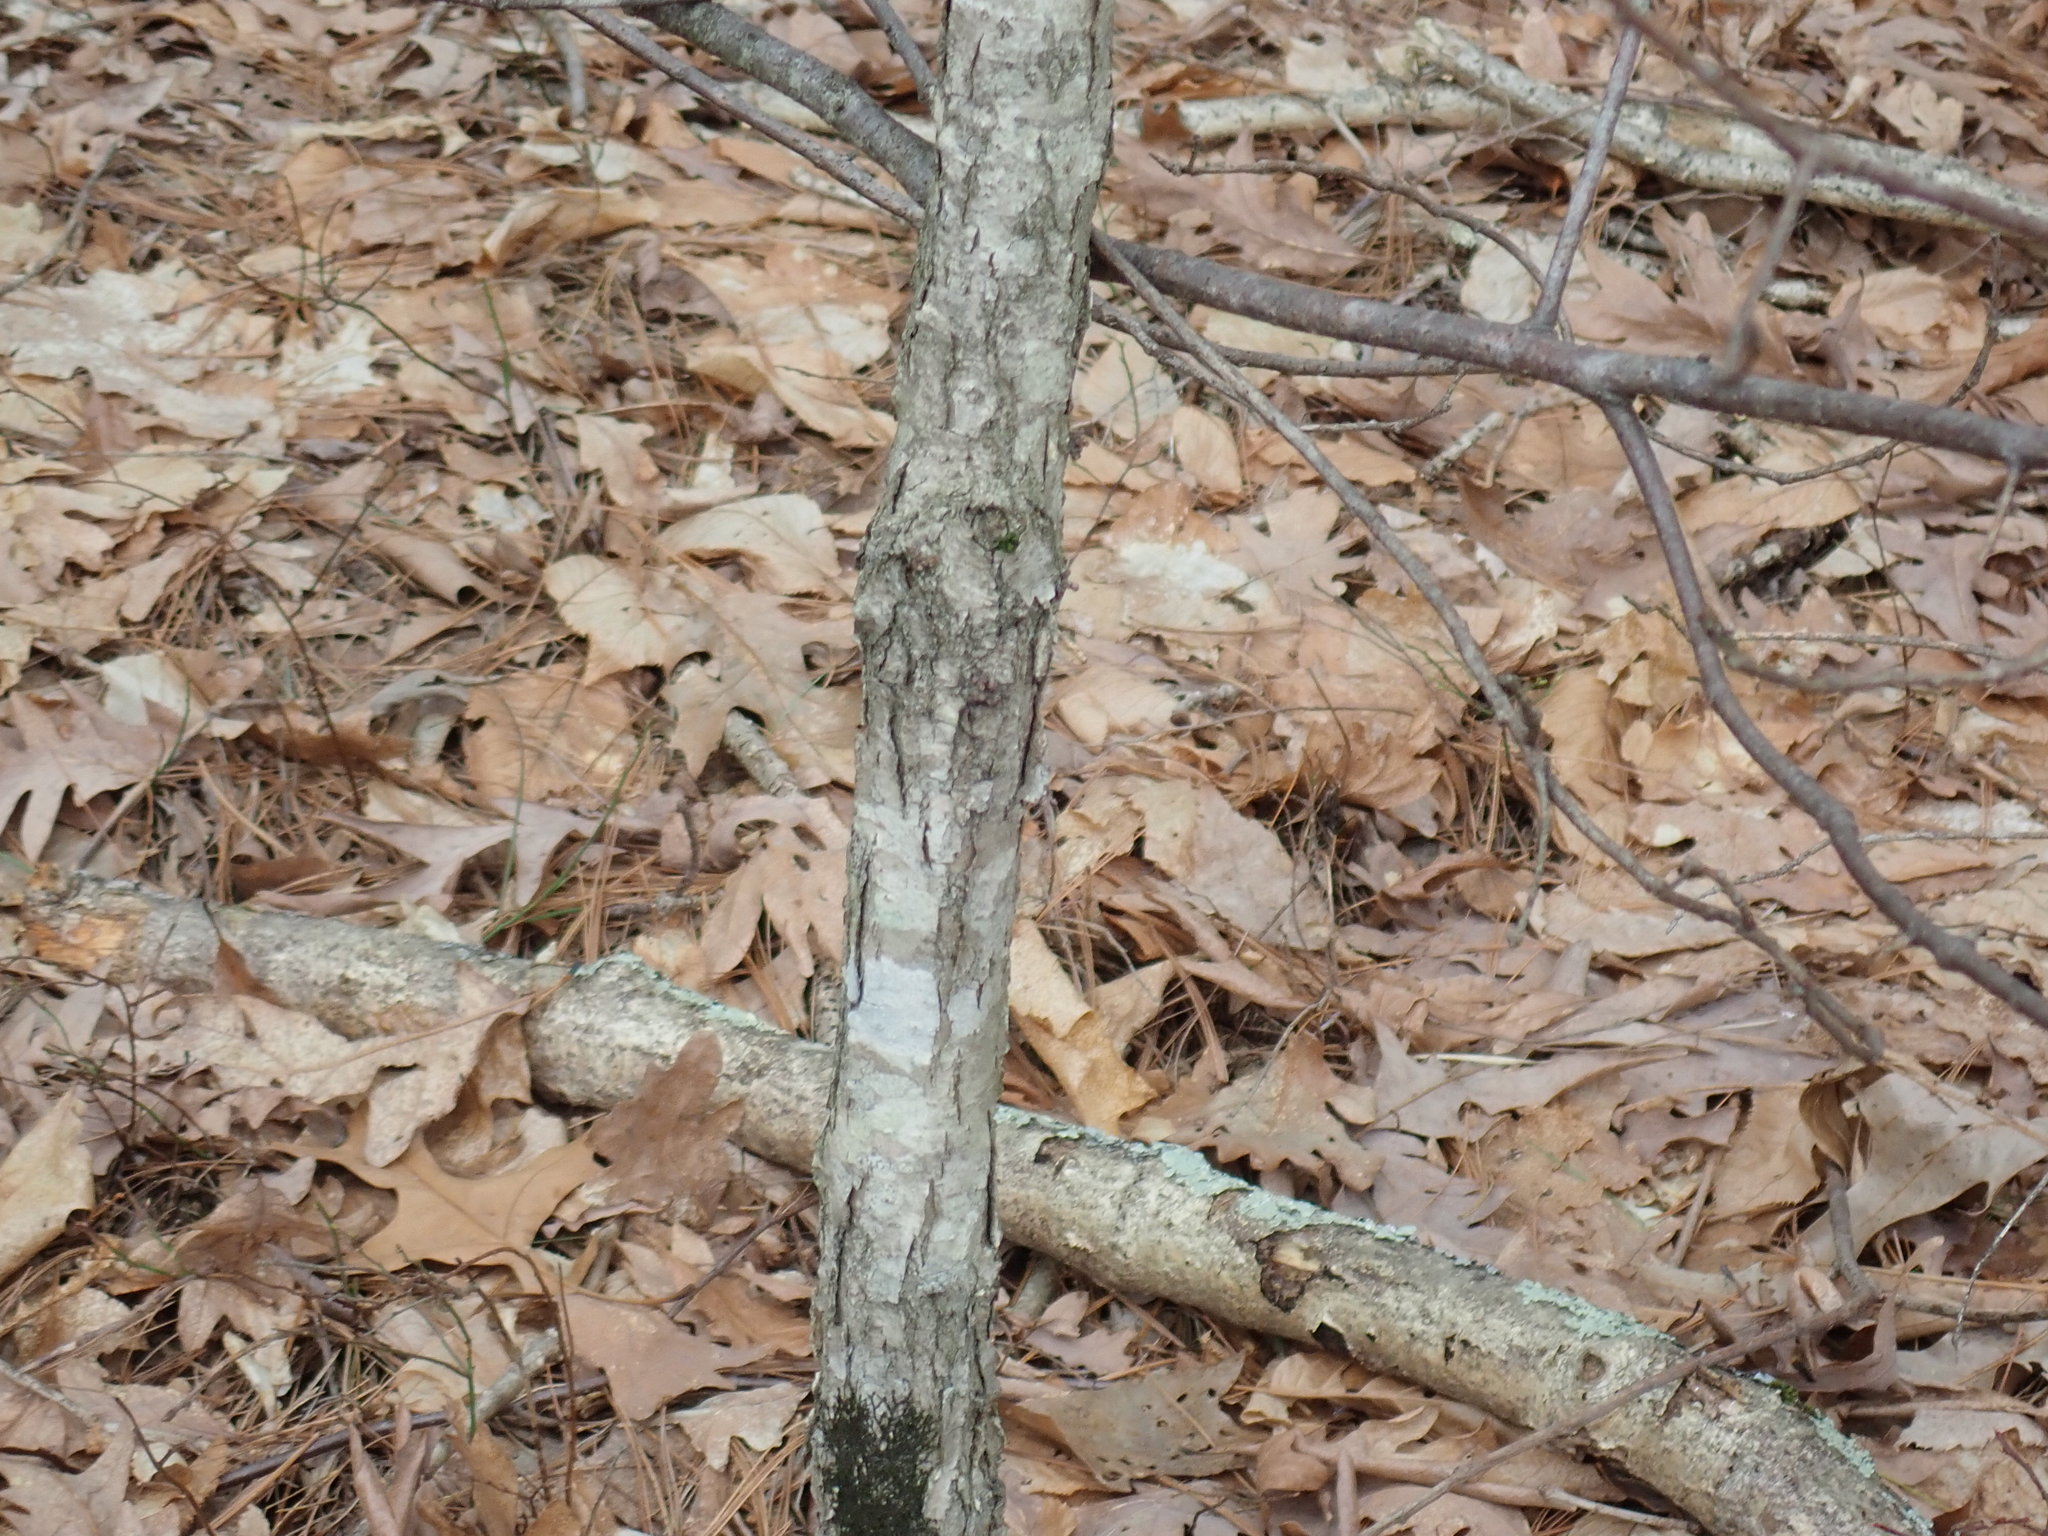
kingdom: Animalia
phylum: Arthropoda
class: Insecta
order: Hymenoptera
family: Cynipidae
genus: Disholcaspis
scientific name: Disholcaspis quercusglobulus
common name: Round bullet gall wasp
